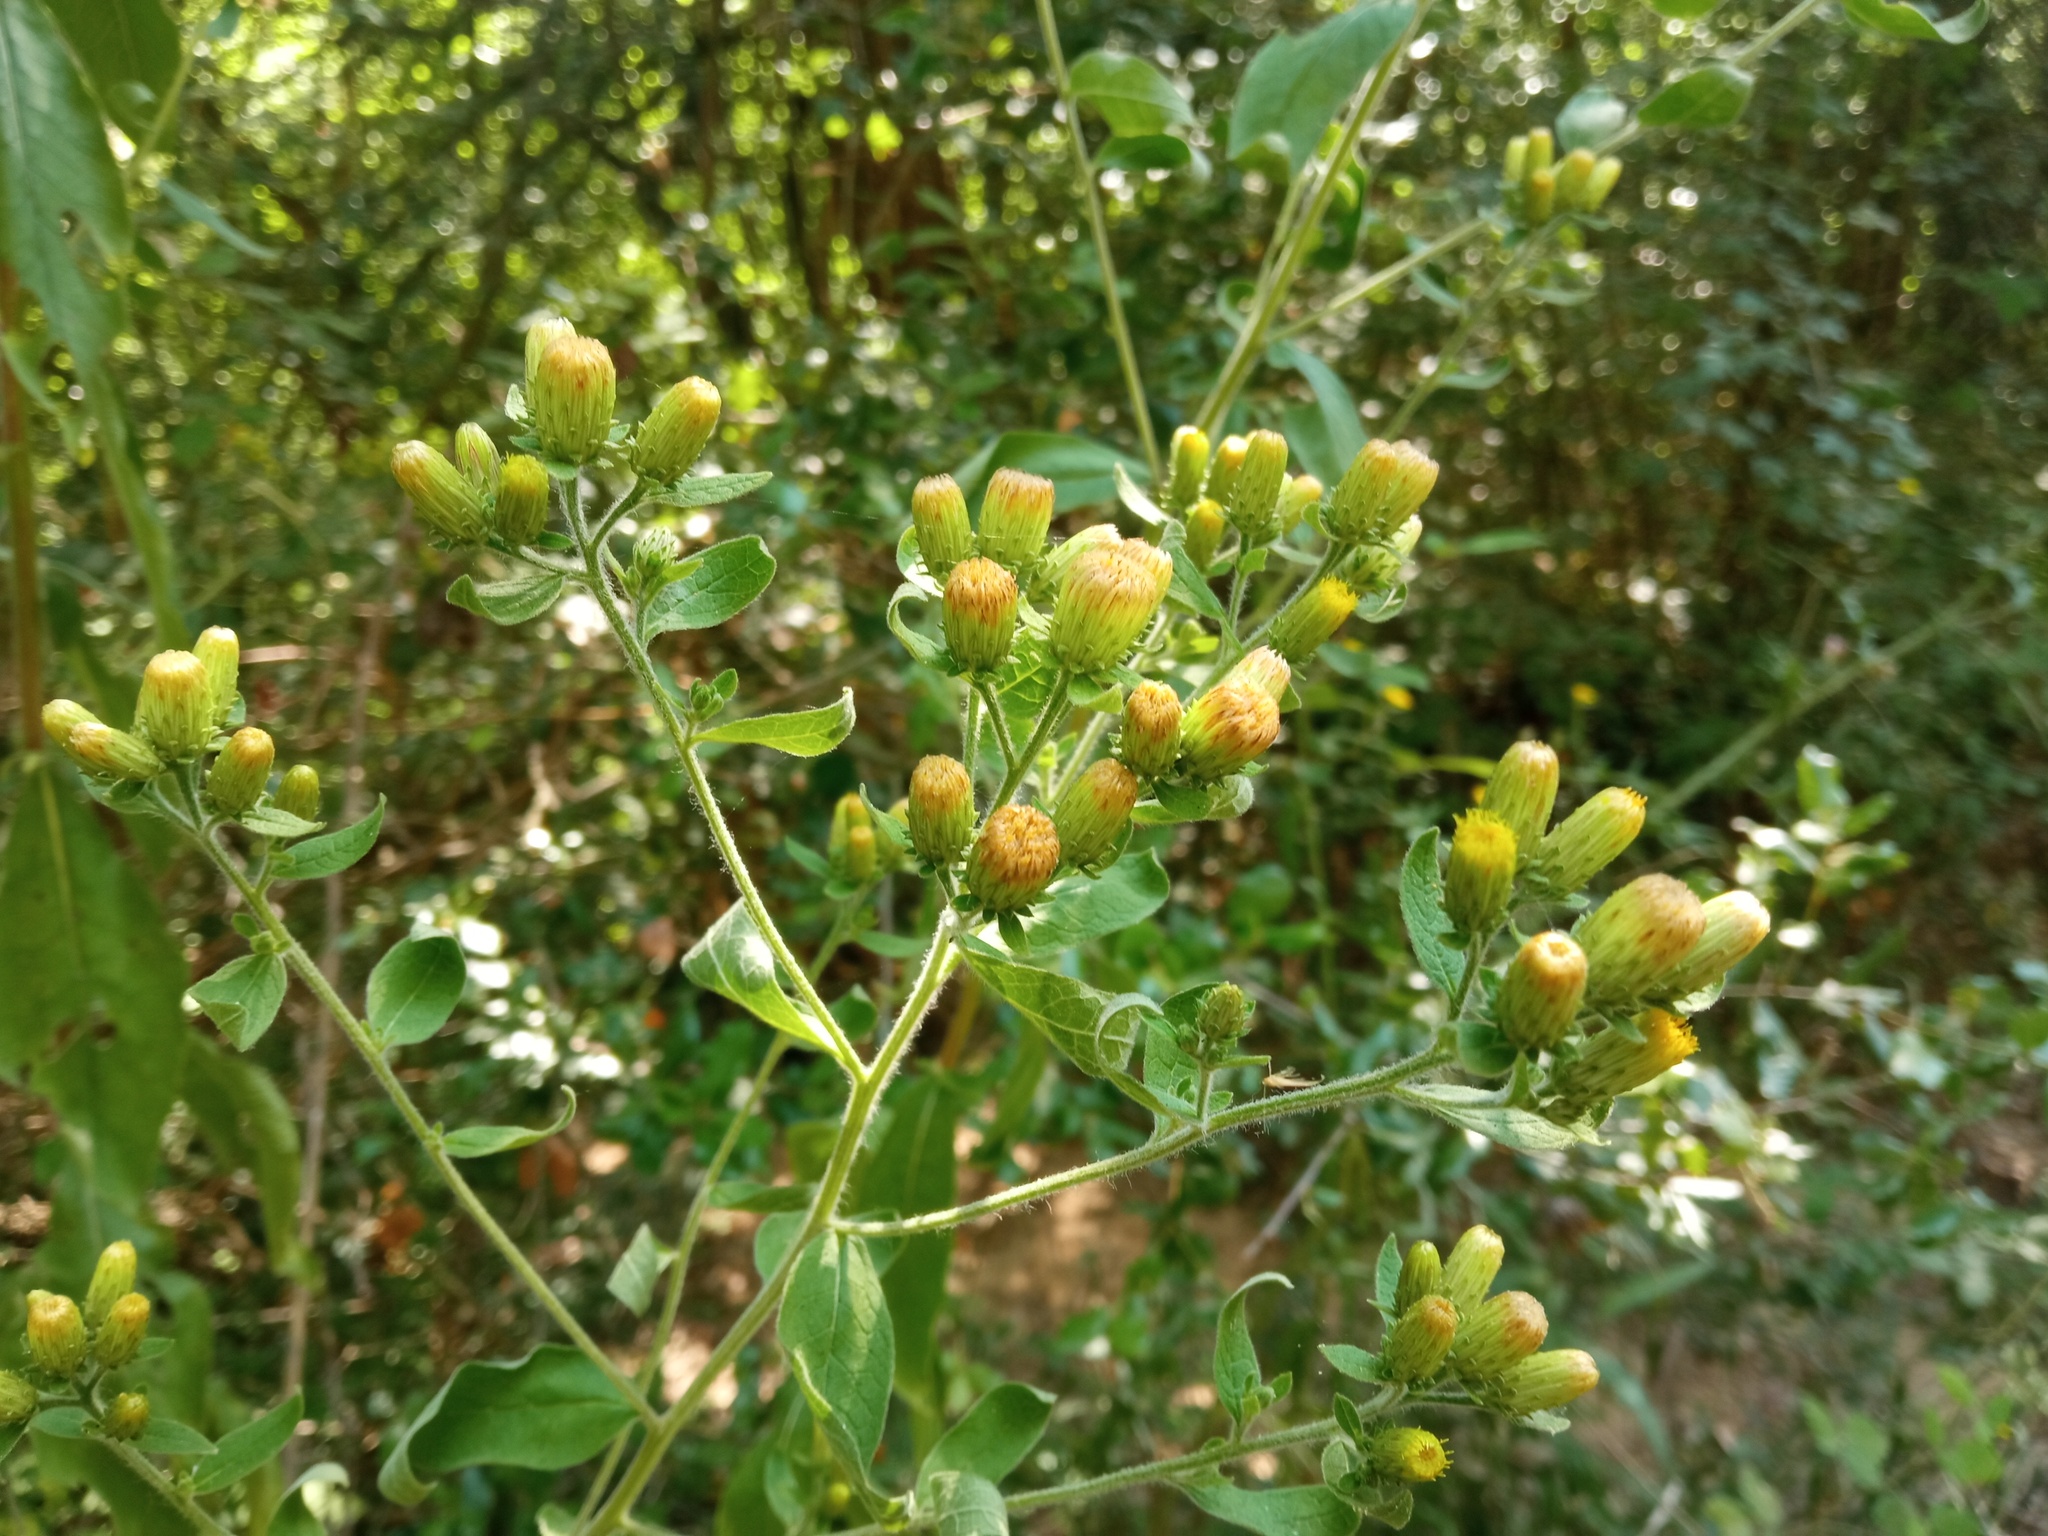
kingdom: Plantae
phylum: Tracheophyta
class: Magnoliopsida
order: Asterales
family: Asteraceae
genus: Pentanema
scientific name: Pentanema squarrosum
